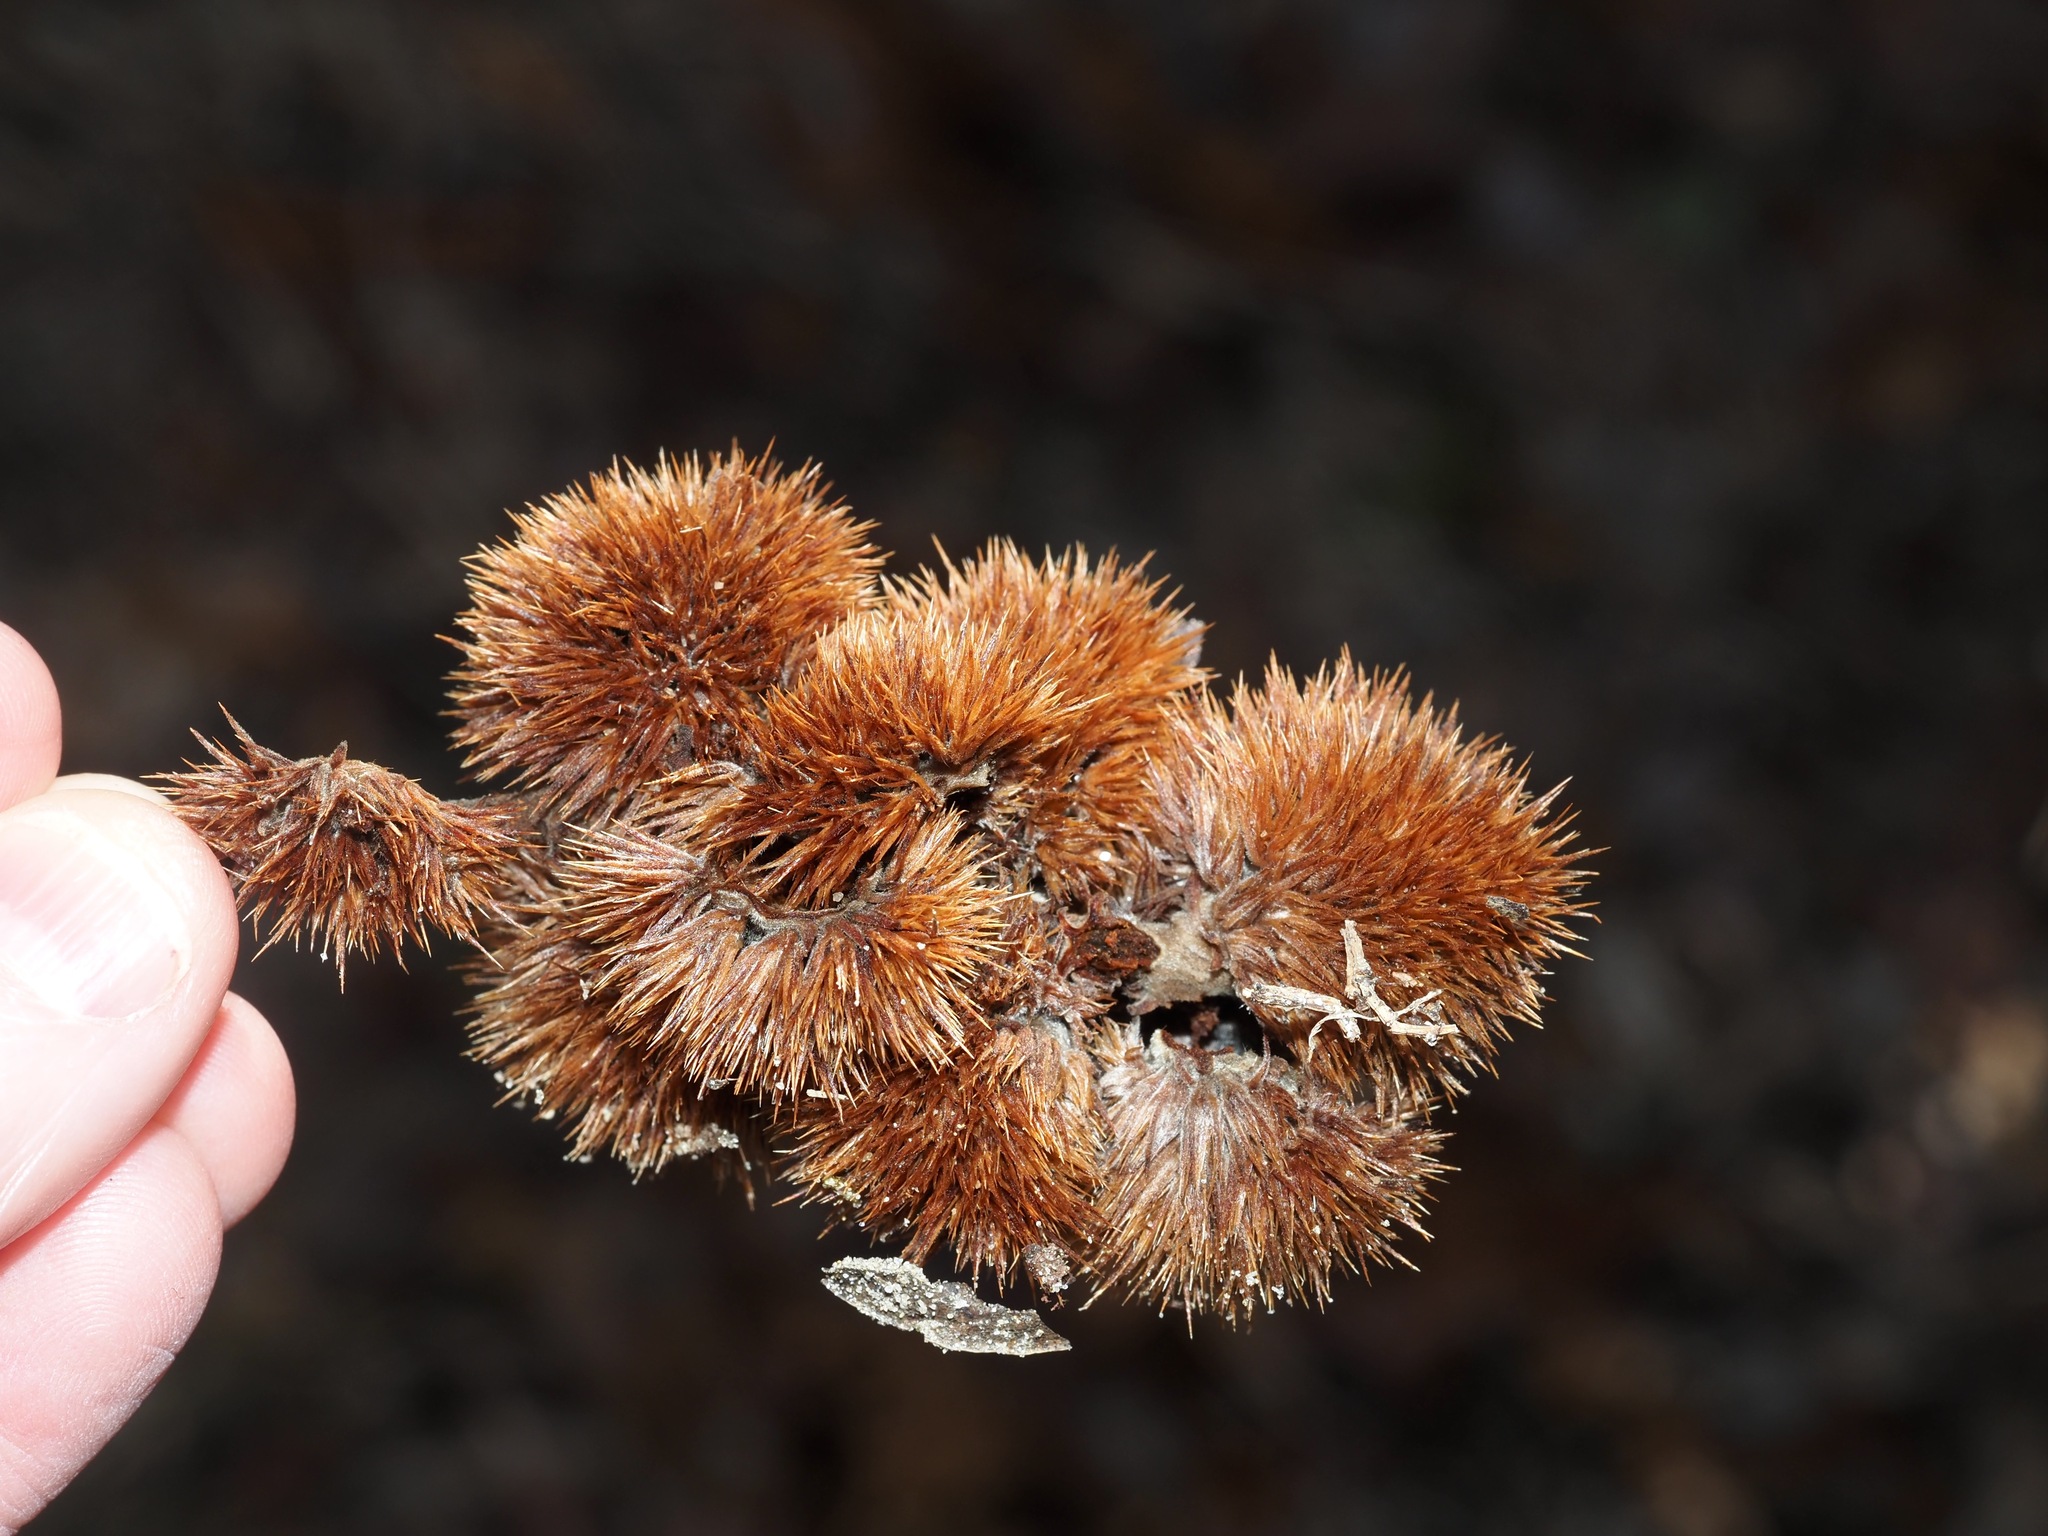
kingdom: Plantae
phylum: Tracheophyta
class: Magnoliopsida
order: Fagales
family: Fagaceae
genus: Castanea
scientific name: Castanea pumila
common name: Chinkapin
